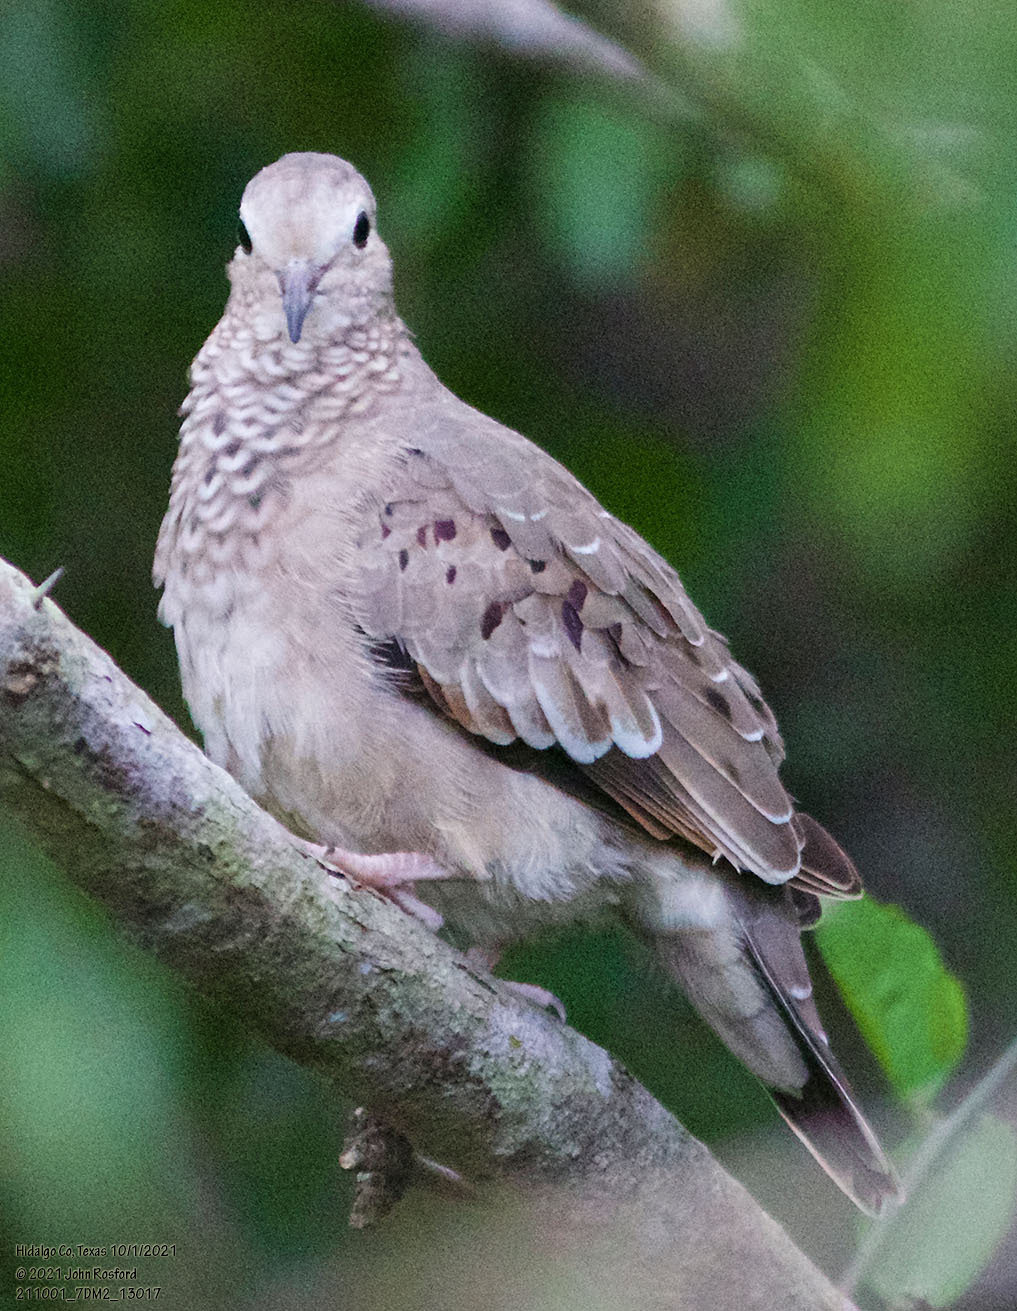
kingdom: Animalia
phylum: Chordata
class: Aves
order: Columbiformes
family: Columbidae
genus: Columbina
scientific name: Columbina passerina
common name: Common ground-dove
